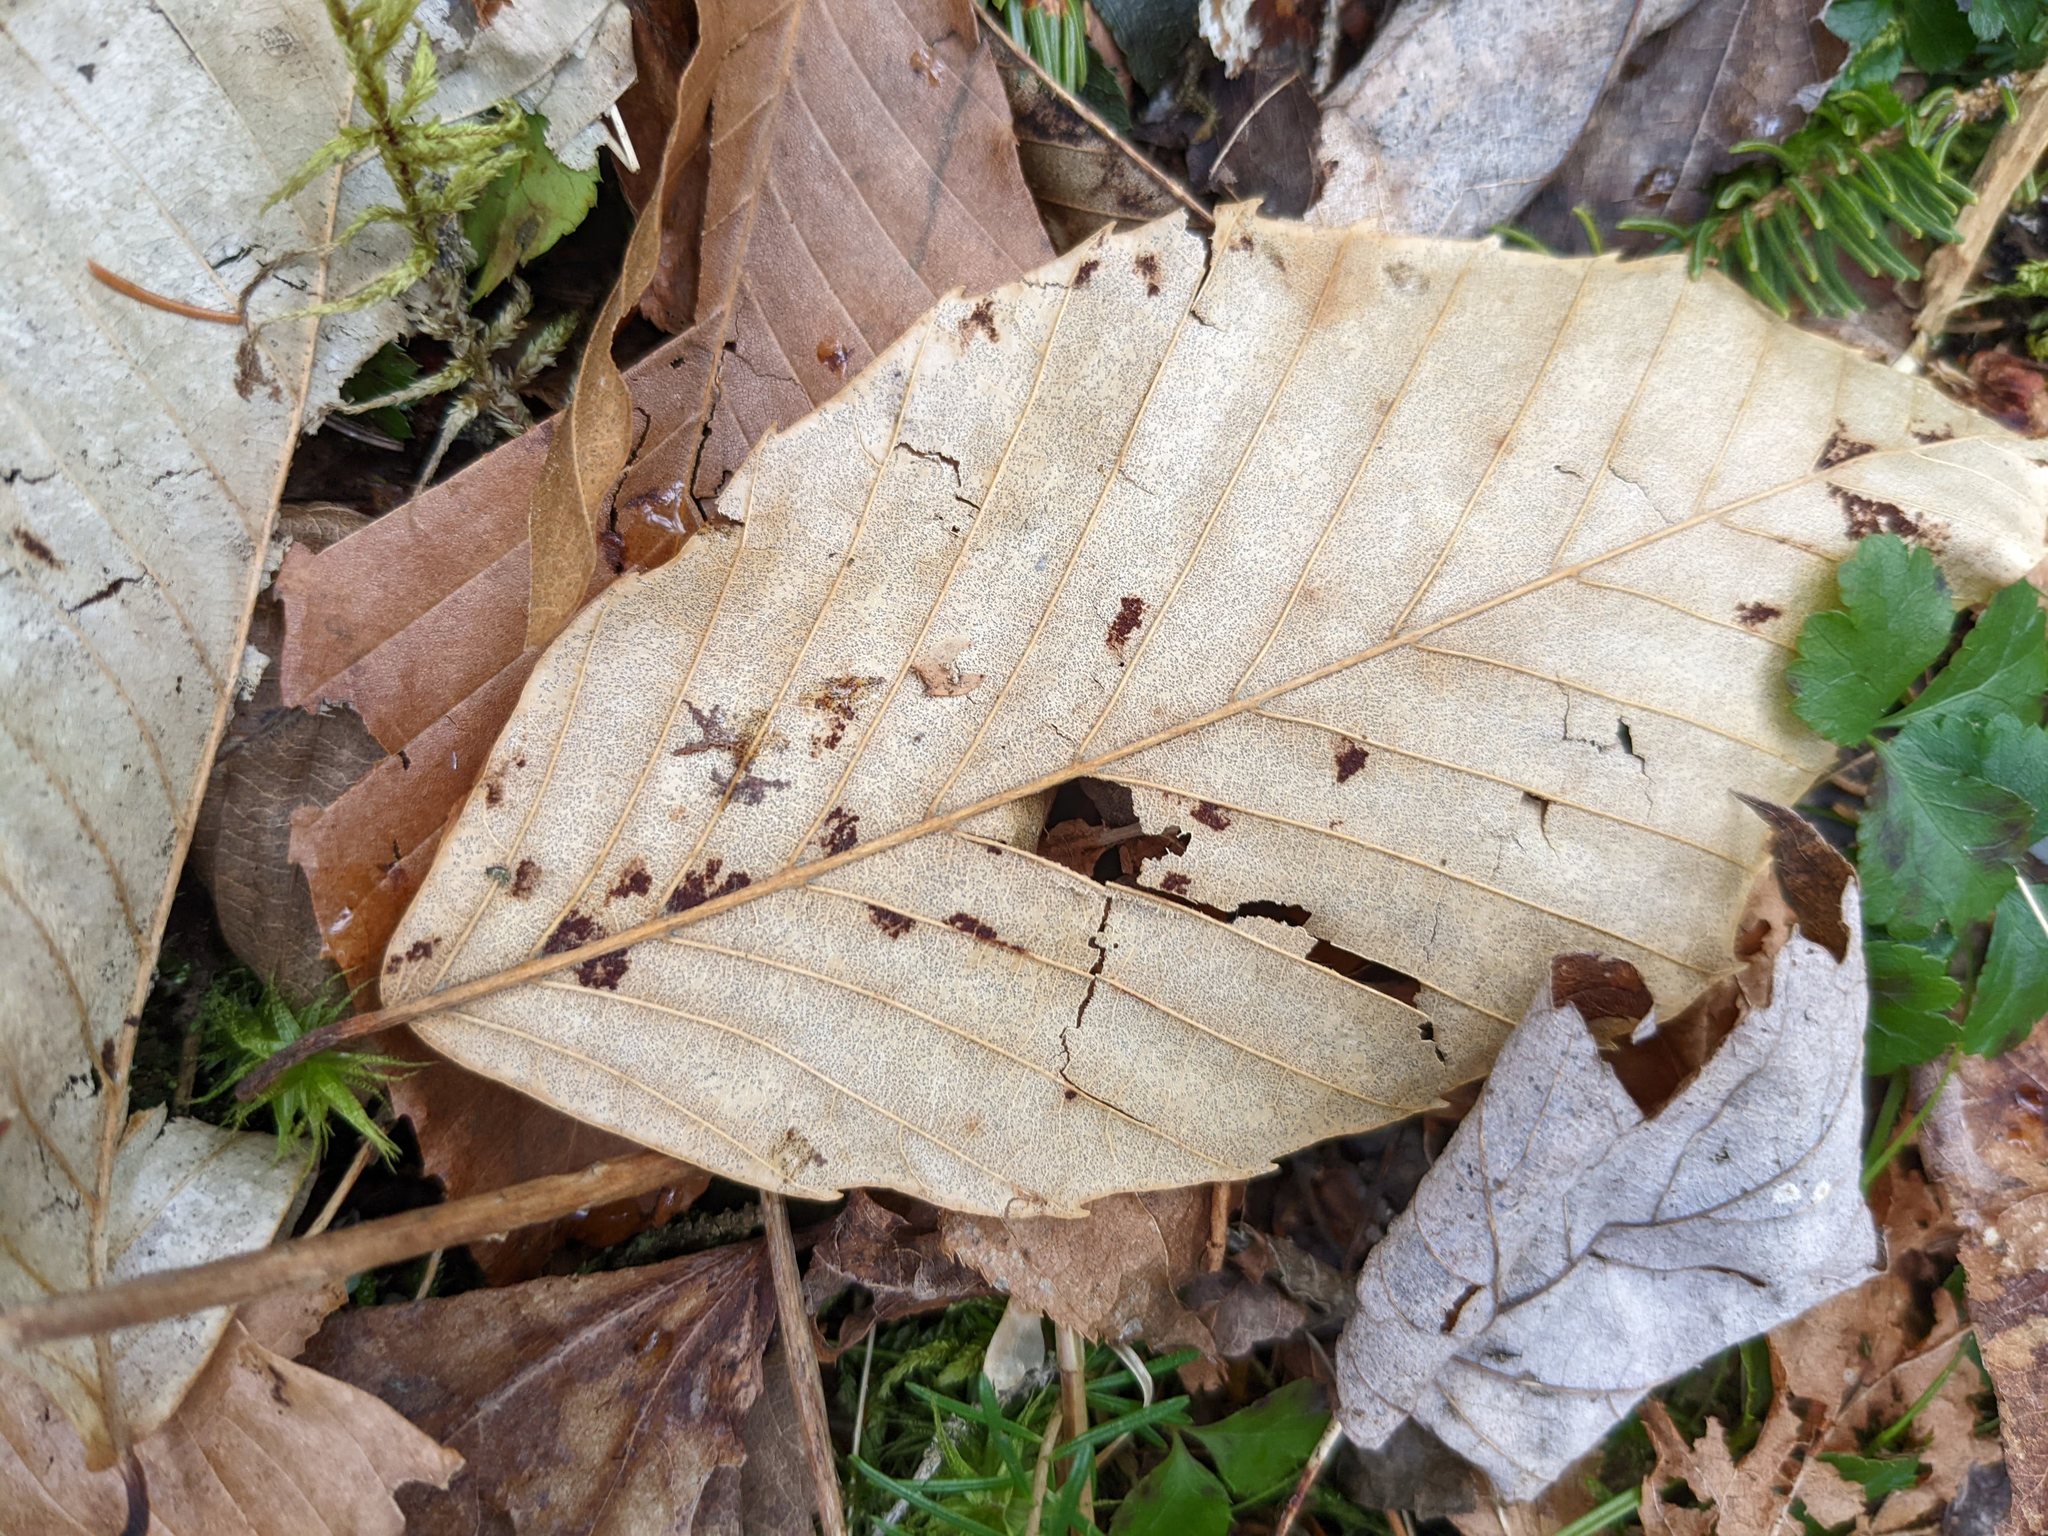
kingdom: Animalia
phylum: Arthropoda
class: Arachnida
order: Trombidiformes
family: Eriophyidae
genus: Acalitus
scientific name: Acalitus
